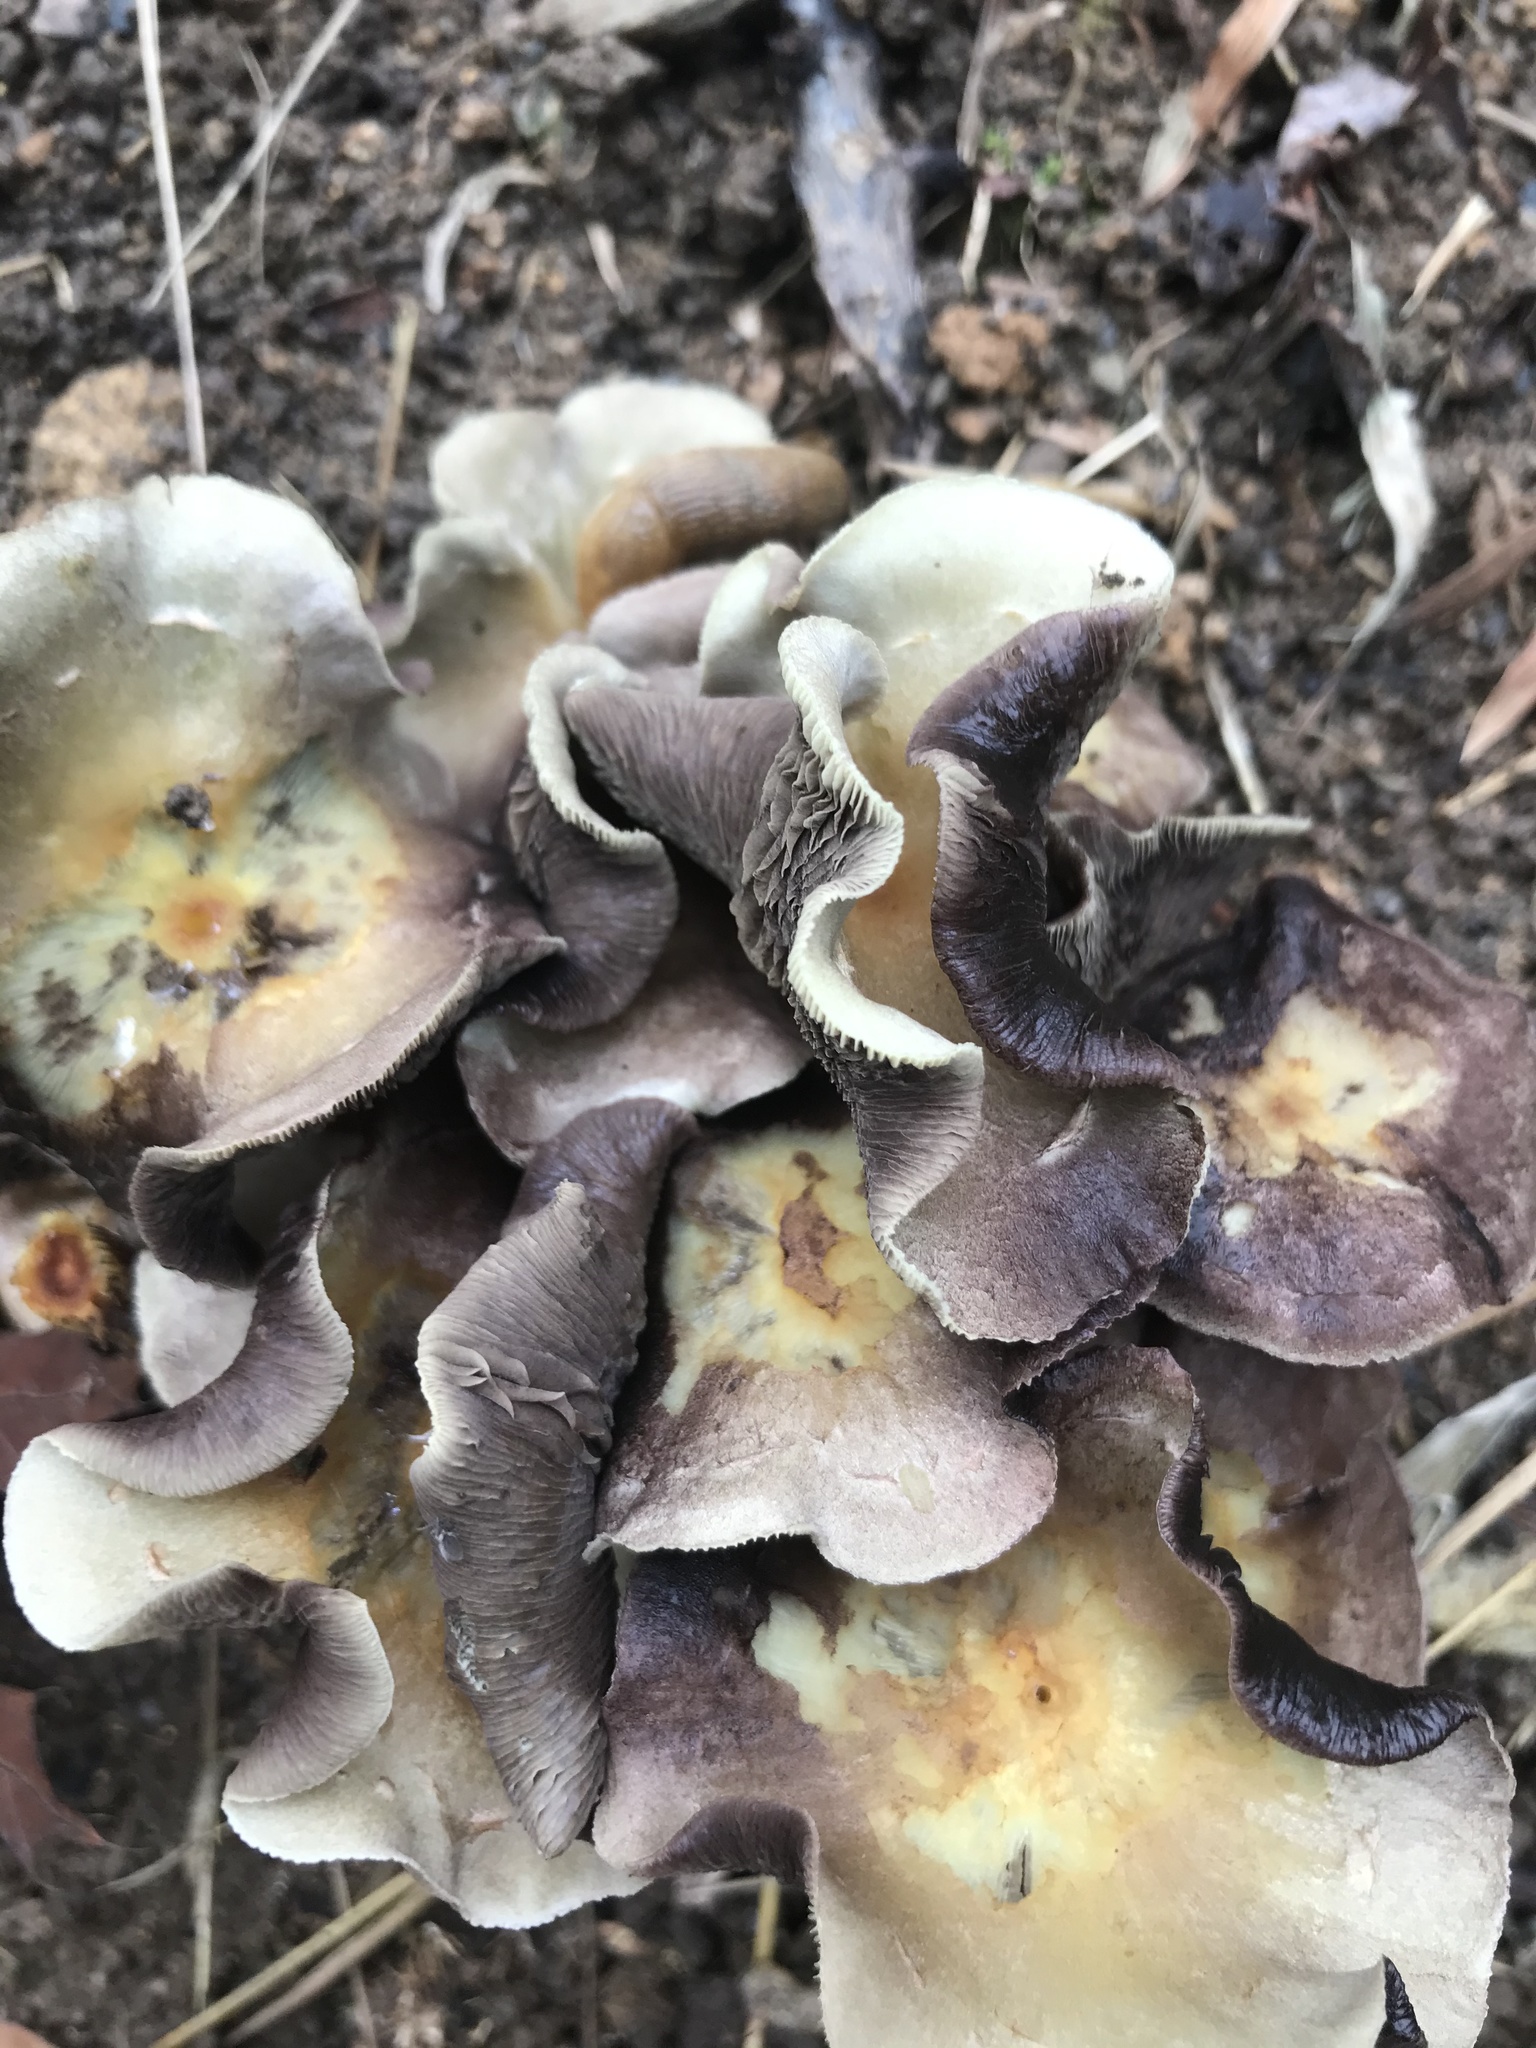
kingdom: Fungi
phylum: Basidiomycota
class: Agaricomycetes
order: Agaricales
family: Strophariaceae
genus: Hypholoma
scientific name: Hypholoma fasciculare
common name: Sulphur tuft
